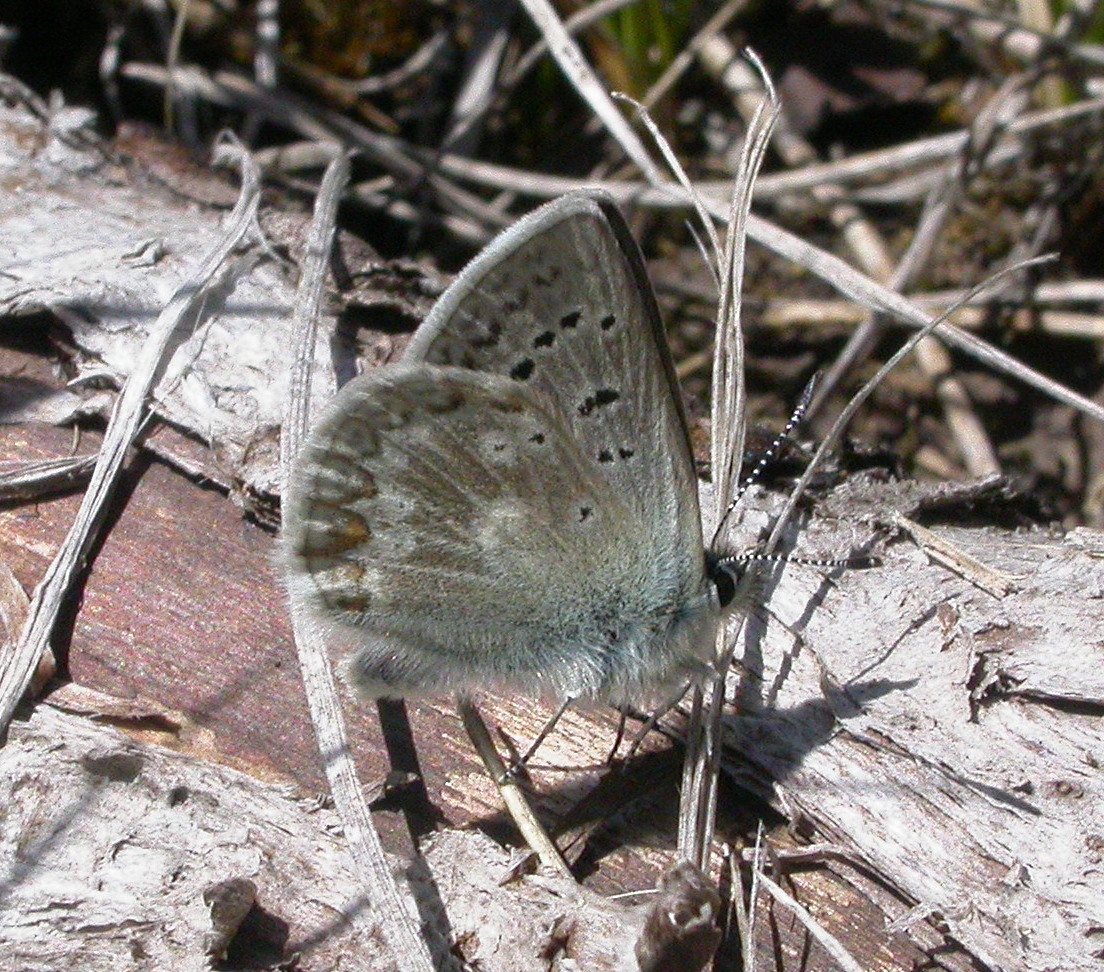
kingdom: Animalia
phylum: Arthropoda
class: Insecta
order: Lepidoptera
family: Lycaenidae
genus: Agriades
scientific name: Agriades glandon
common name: Glandon blue
